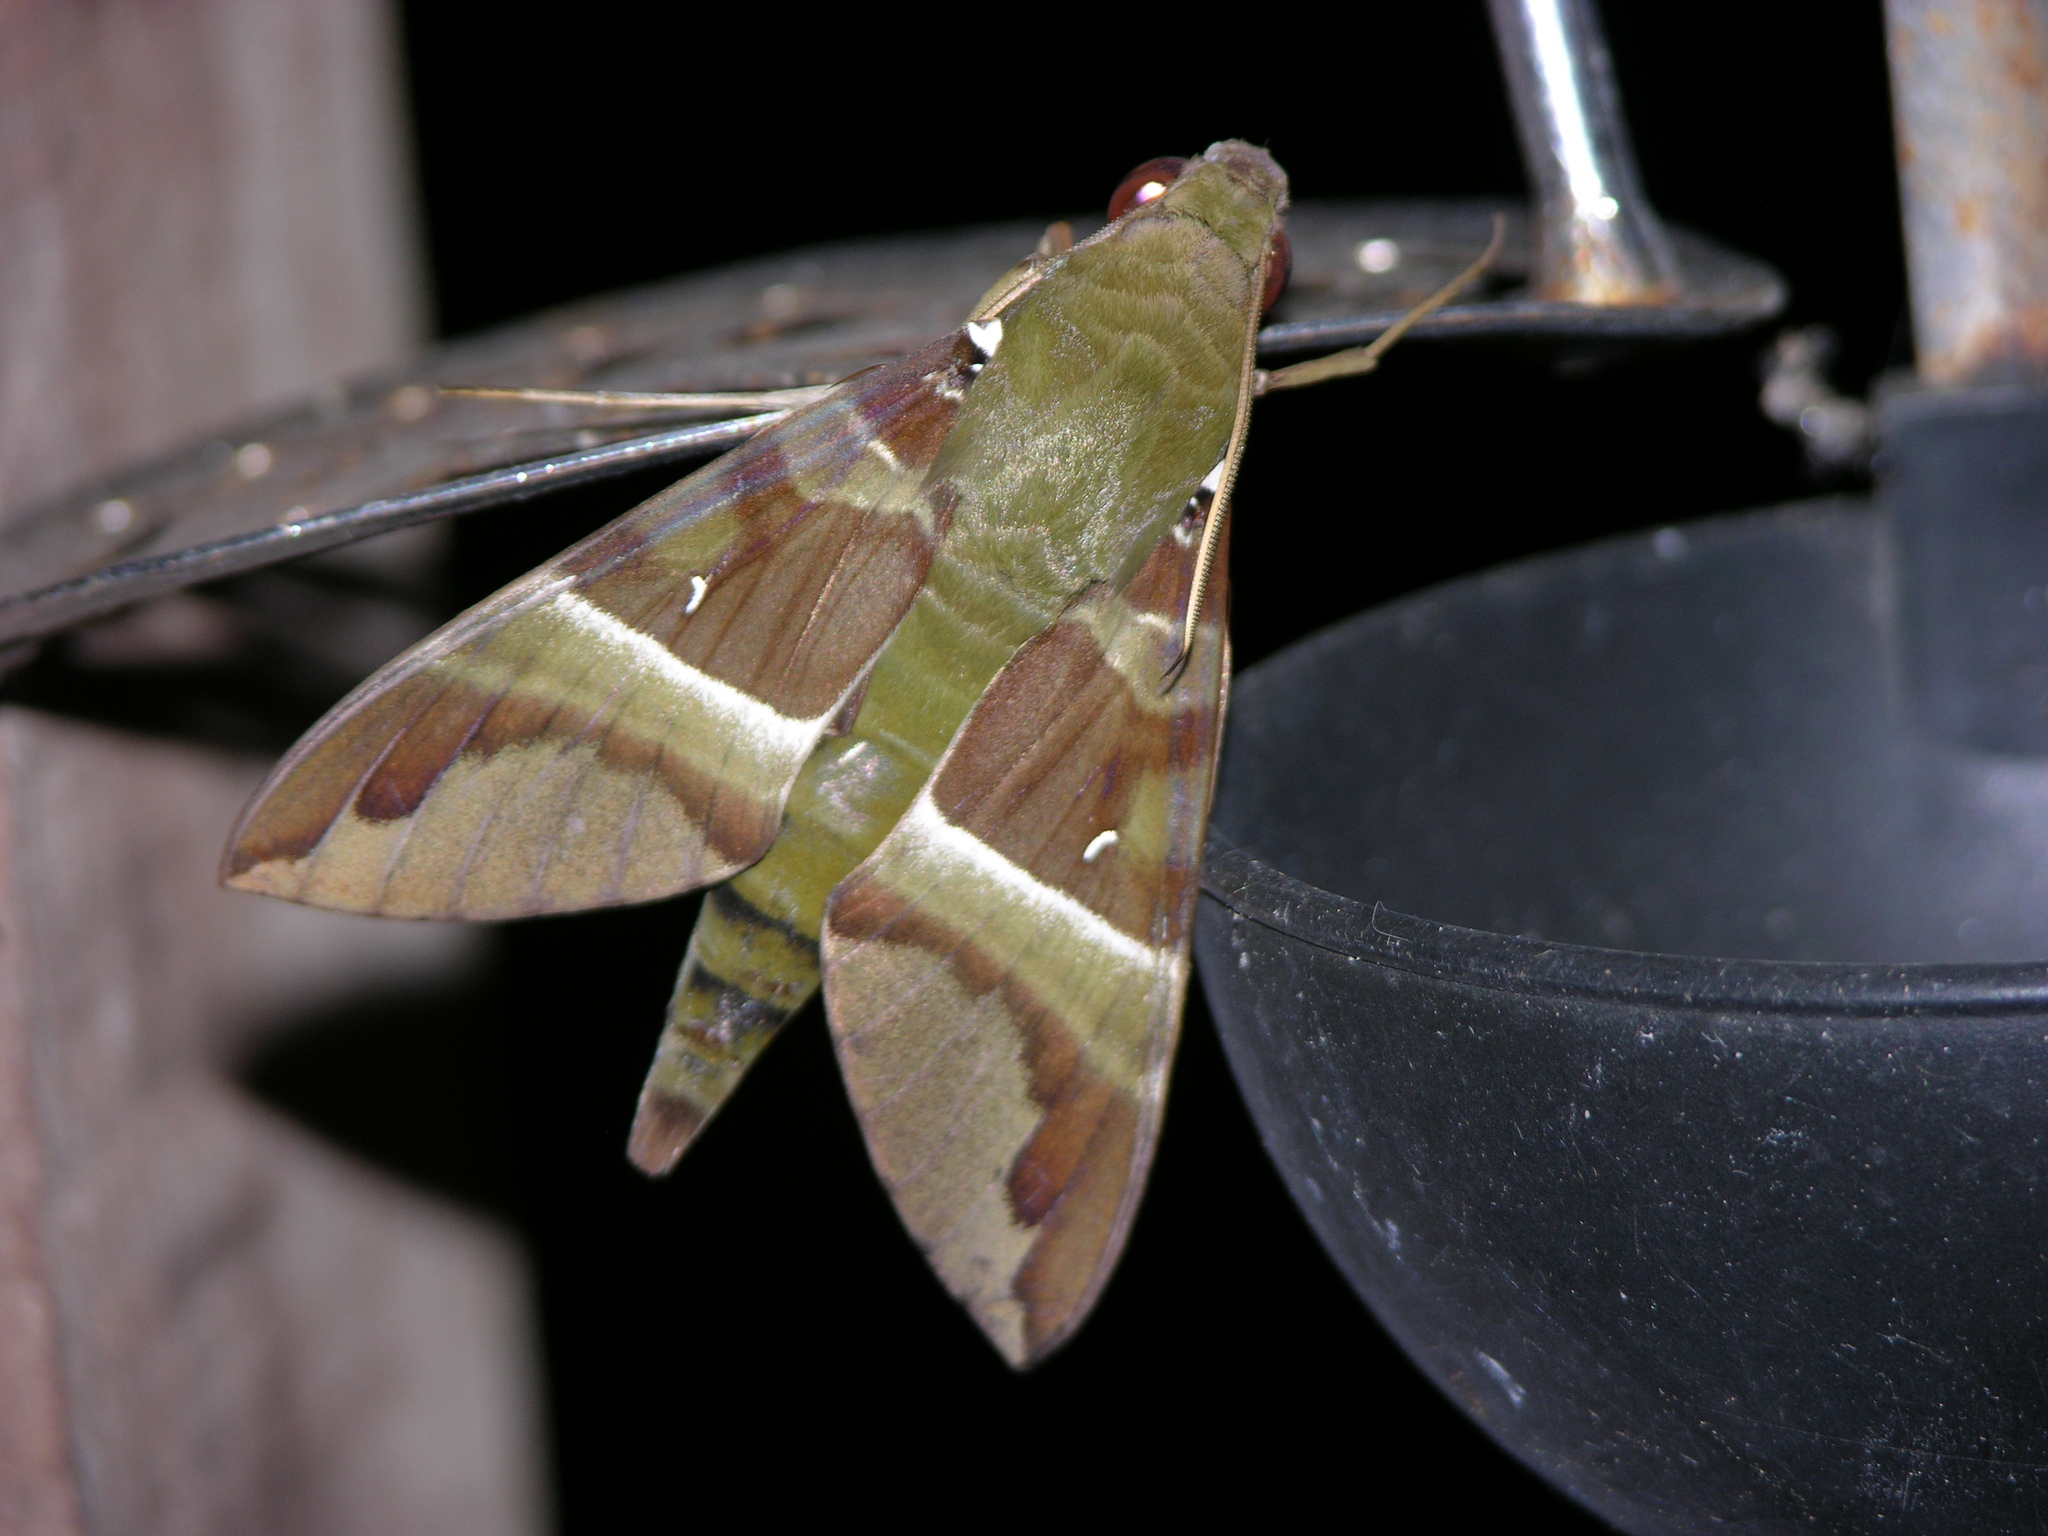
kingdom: Animalia
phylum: Arthropoda
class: Insecta
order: Lepidoptera
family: Sphingidae
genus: Nephele
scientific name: Nephele rosae
